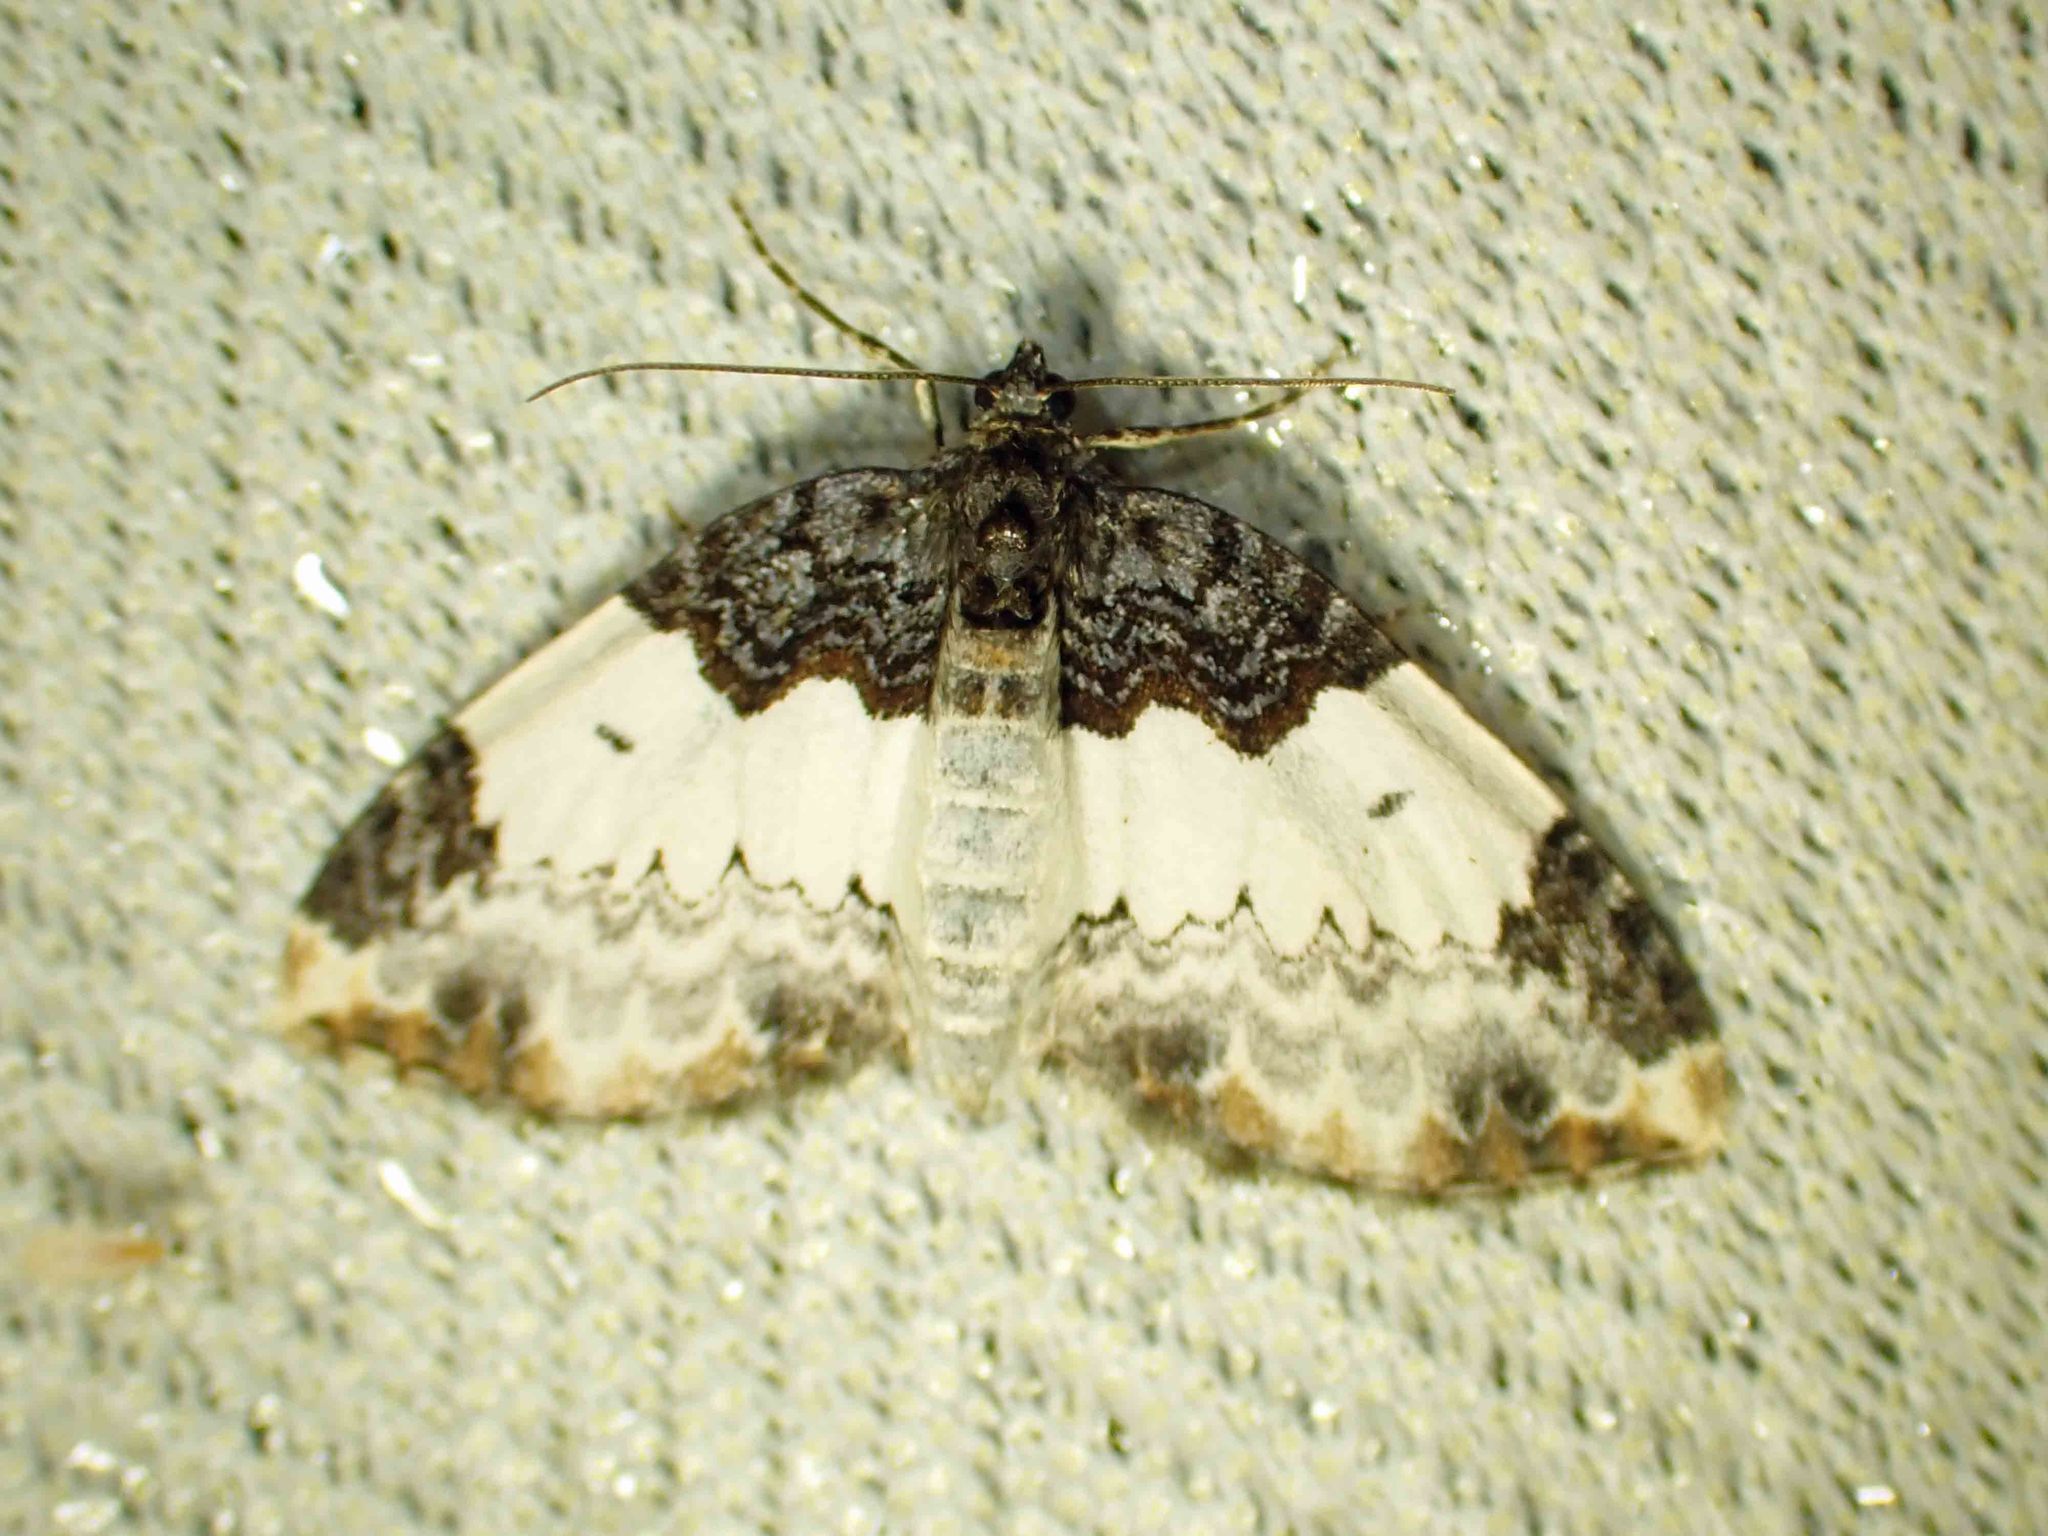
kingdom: Animalia
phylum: Arthropoda
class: Insecta
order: Lepidoptera
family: Geometridae
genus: Mesoleuca
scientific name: Mesoleuca ruficillata
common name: White-ribboned carpet moth
